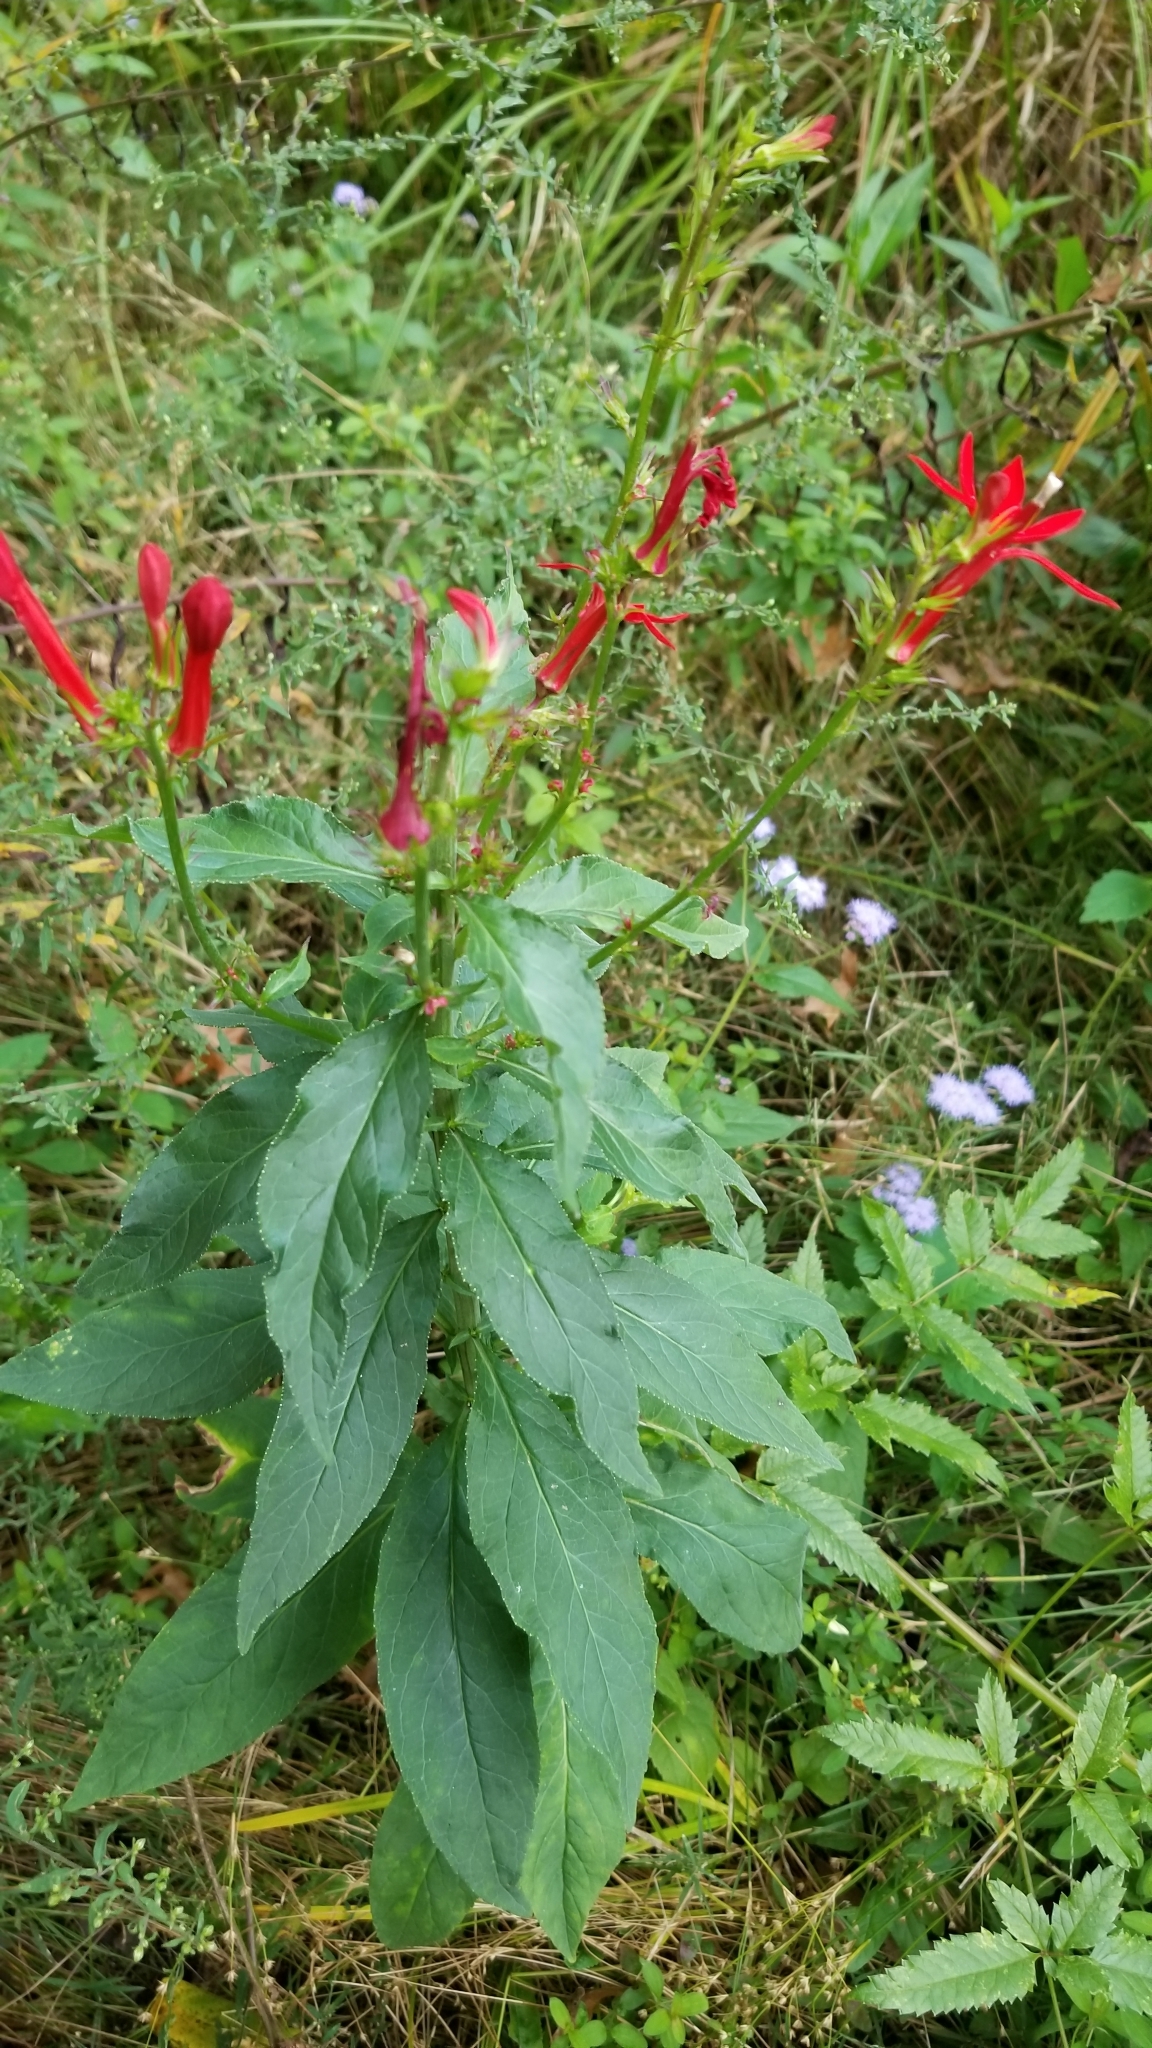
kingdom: Plantae
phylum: Tracheophyta
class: Magnoliopsida
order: Asterales
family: Campanulaceae
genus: Lobelia
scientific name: Lobelia cardinalis
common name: Cardinal flower
